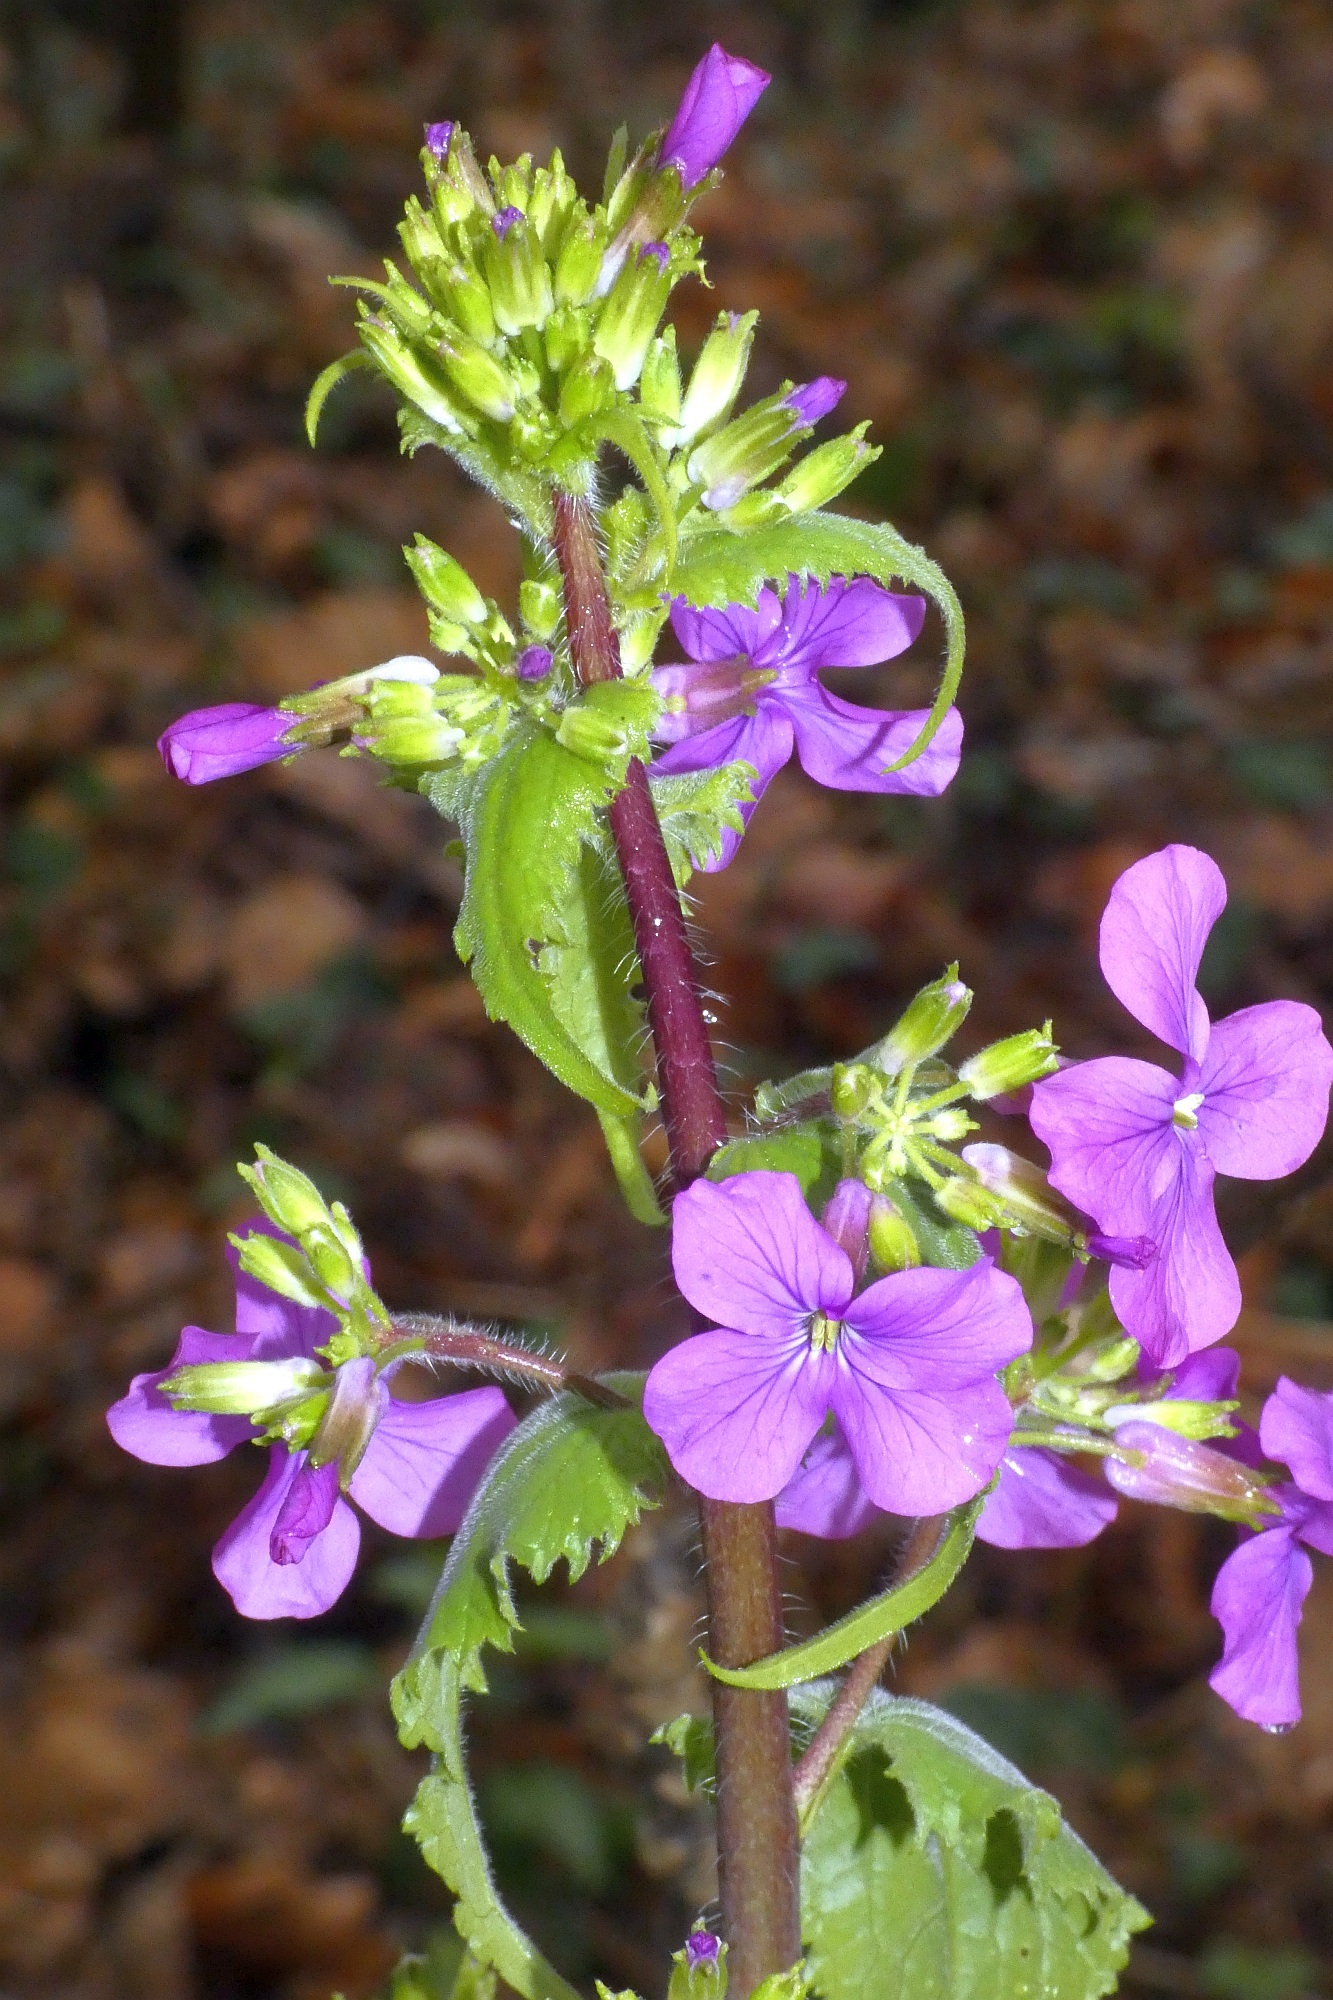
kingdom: Plantae
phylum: Tracheophyta
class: Magnoliopsida
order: Brassicales
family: Brassicaceae
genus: Lunaria
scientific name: Lunaria annua
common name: Honesty
